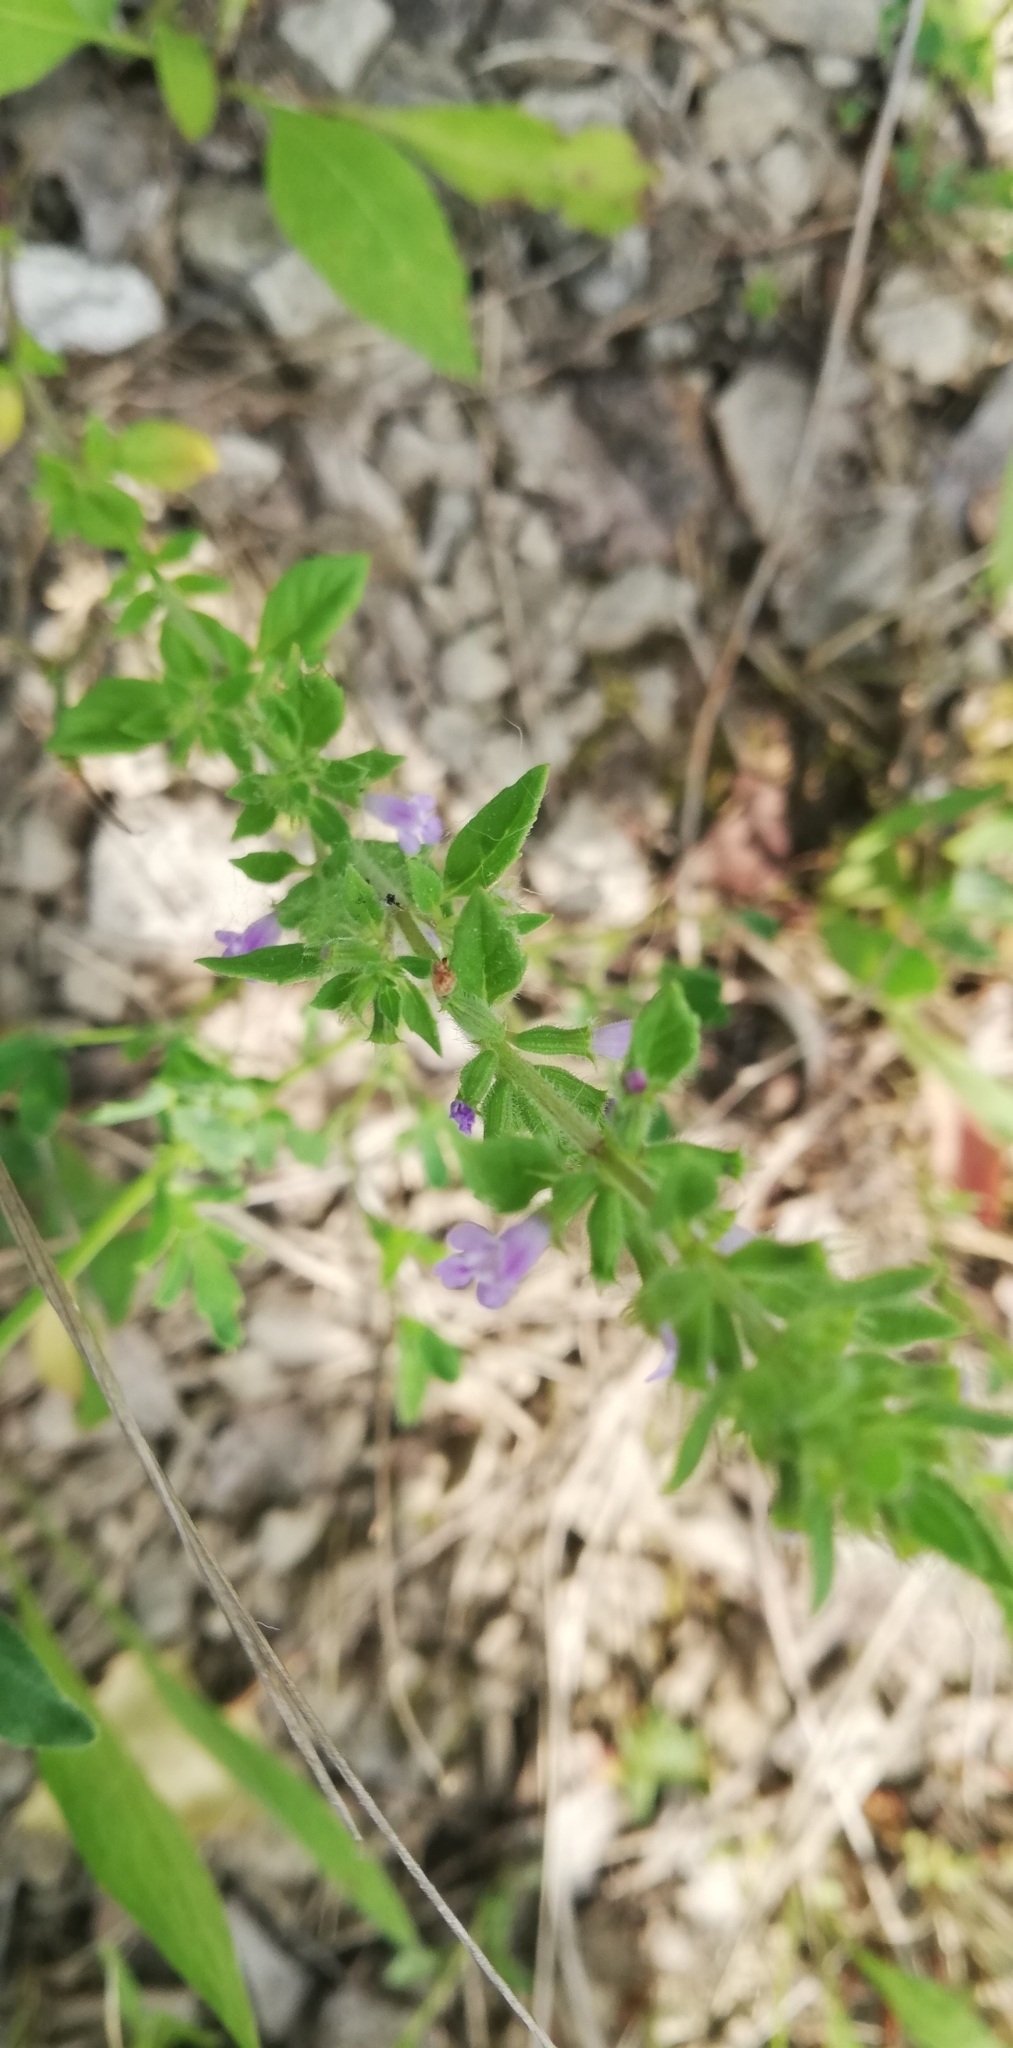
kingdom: Plantae
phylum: Tracheophyta
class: Magnoliopsida
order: Lamiales
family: Lamiaceae
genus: Clinopodium
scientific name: Clinopodium acinos
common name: Basil thyme
